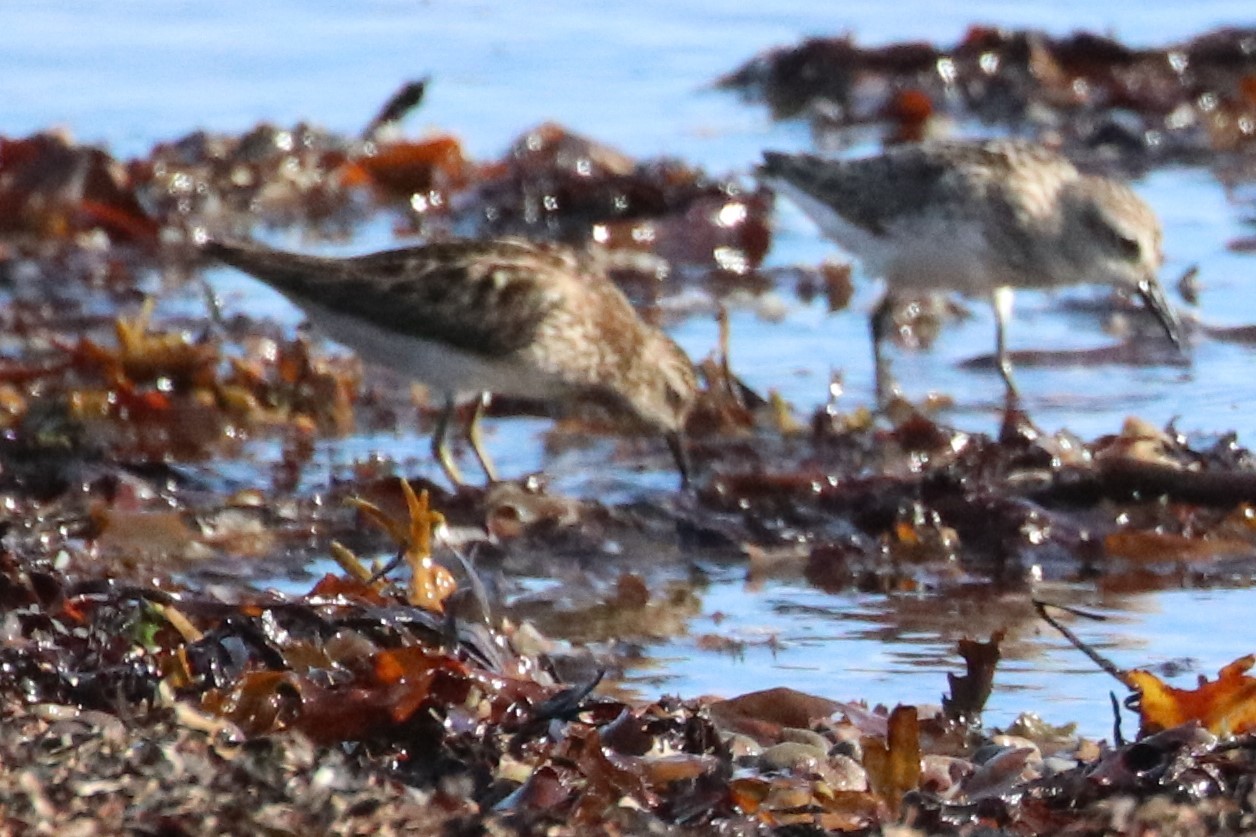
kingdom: Animalia
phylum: Chordata
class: Aves
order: Charadriiformes
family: Scolopacidae
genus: Calidris
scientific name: Calidris minutilla
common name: Least sandpiper
